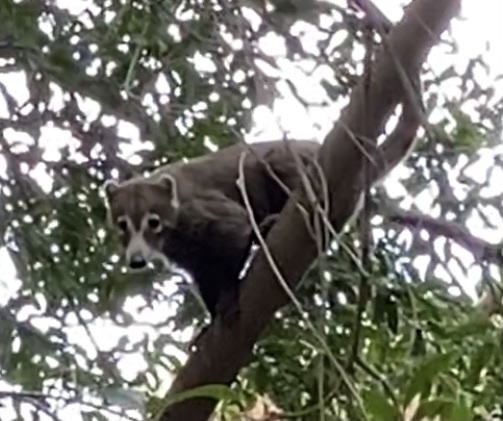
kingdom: Animalia
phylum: Chordata
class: Mammalia
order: Carnivora
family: Procyonidae
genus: Nasua
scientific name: Nasua narica
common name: White-nosed coati
